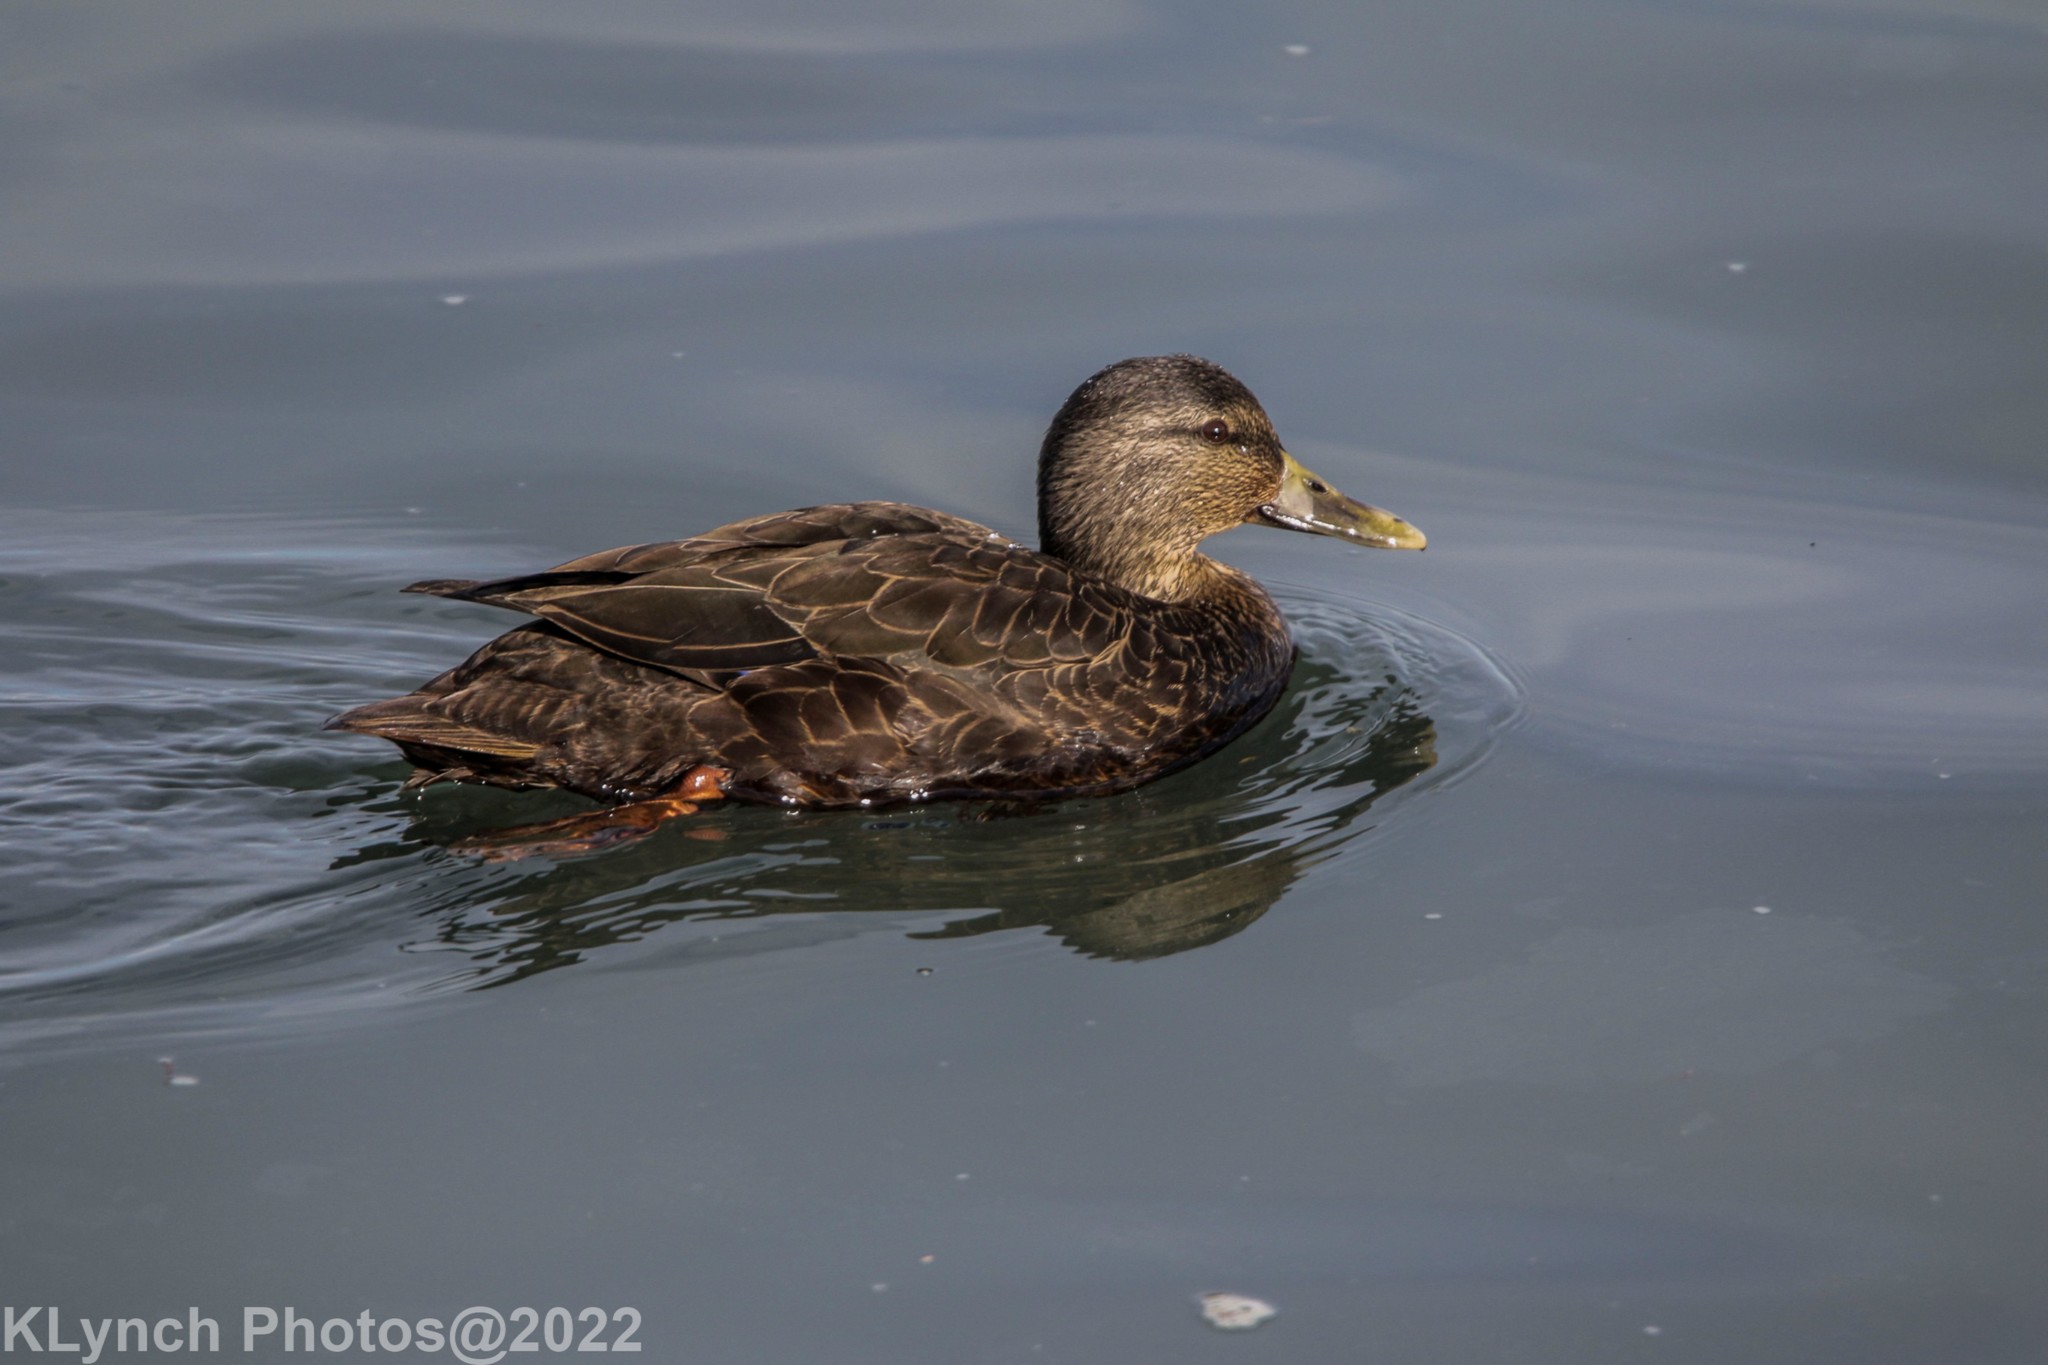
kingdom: Animalia
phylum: Chordata
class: Aves
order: Anseriformes
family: Anatidae
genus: Anas
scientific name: Anas rubripes
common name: American black duck
